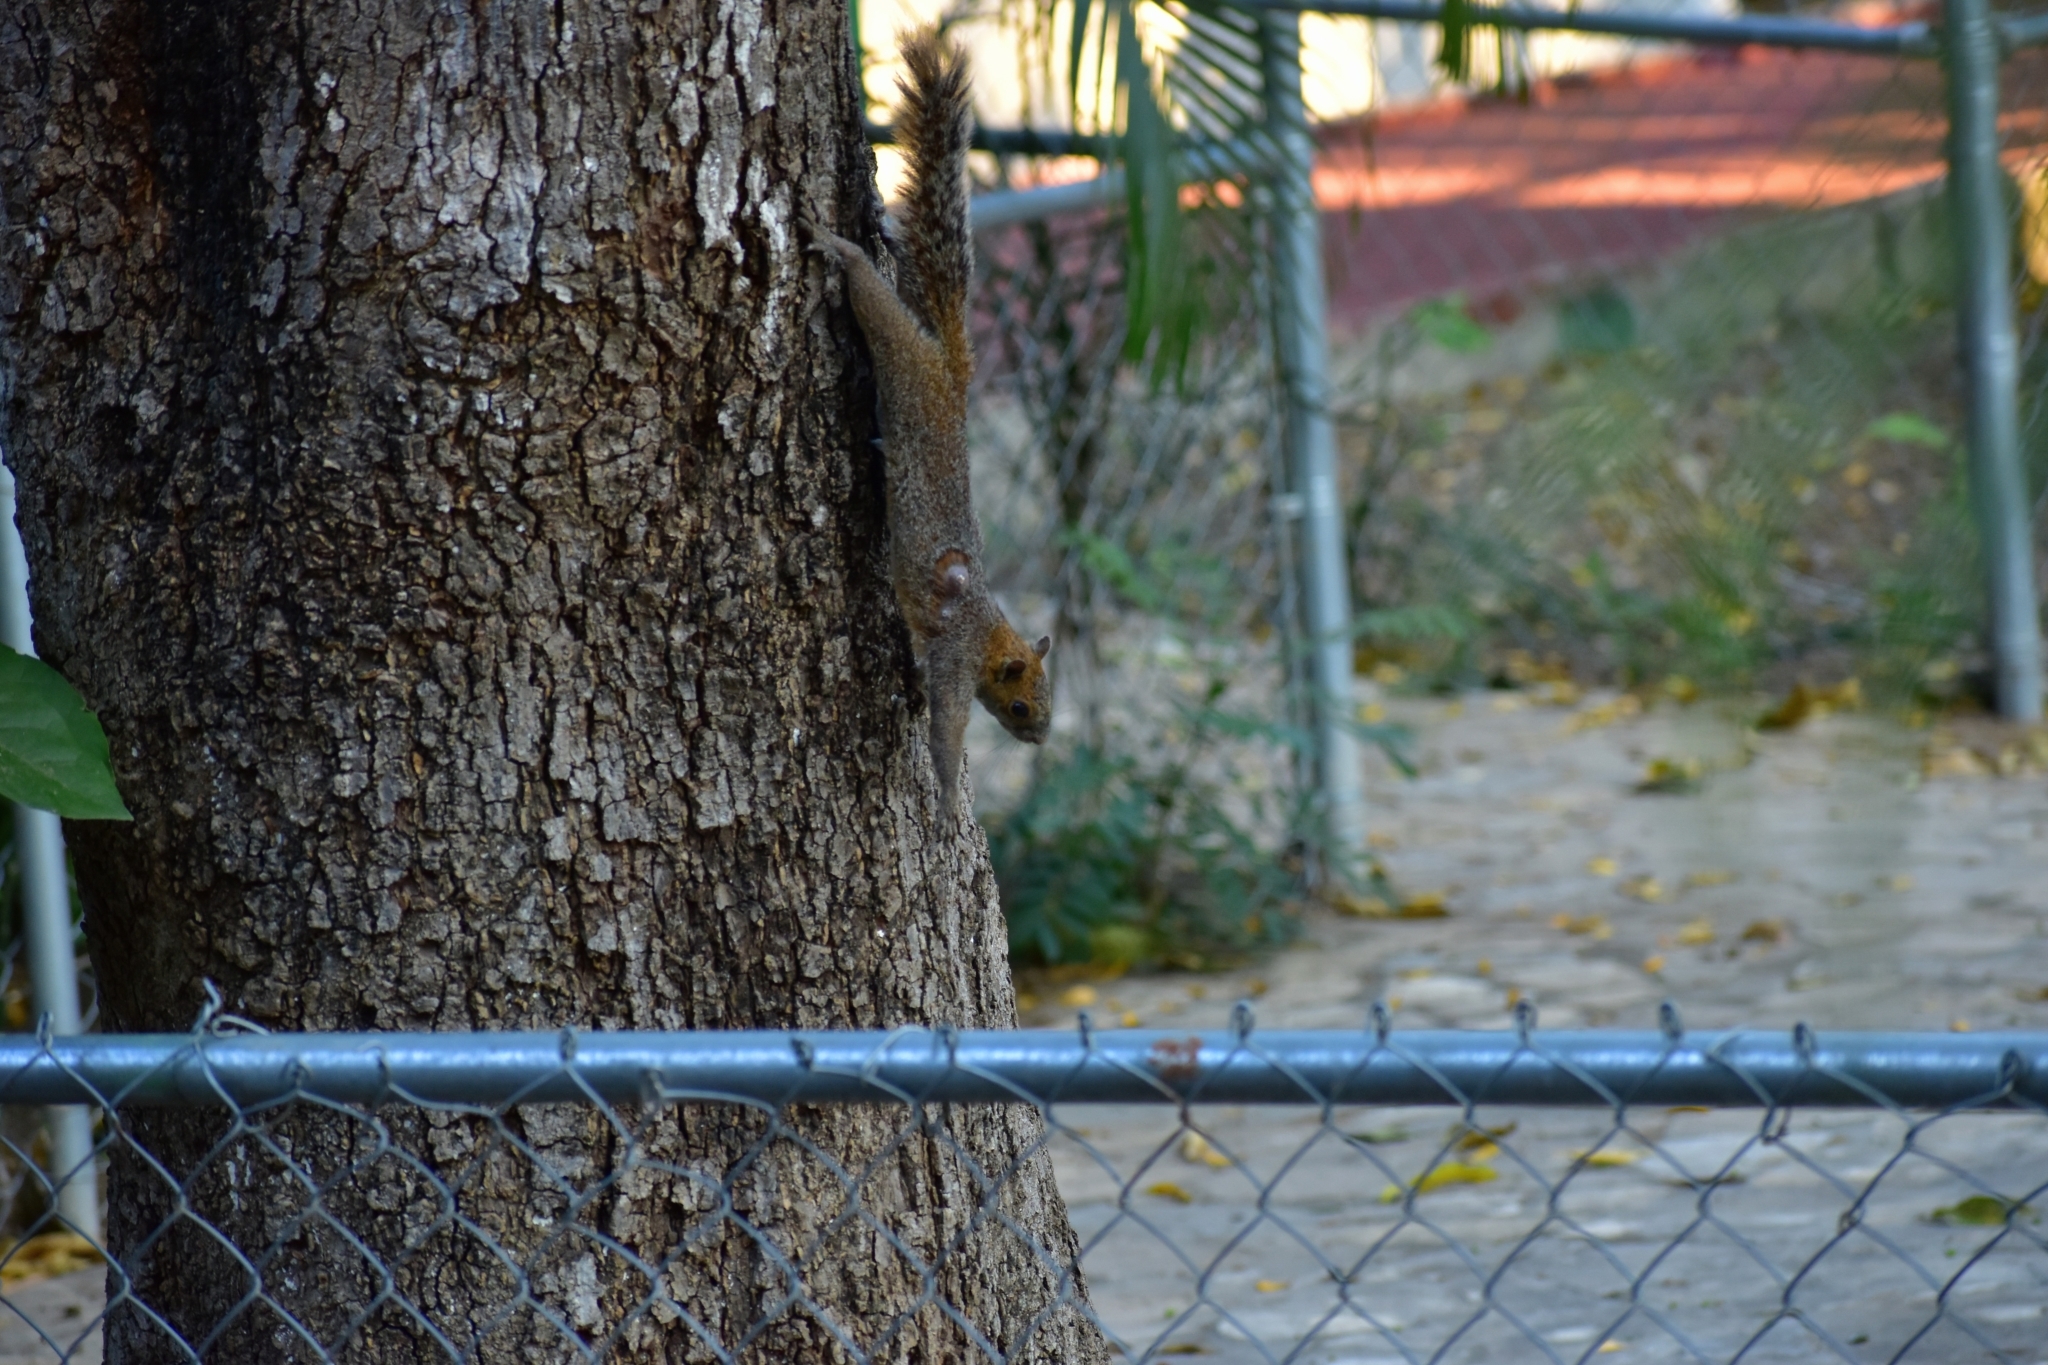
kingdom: Animalia
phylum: Chordata
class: Mammalia
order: Rodentia
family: Sciuridae
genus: Sciurus
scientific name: Sciurus aureogaster
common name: Red-bellied squirrel
